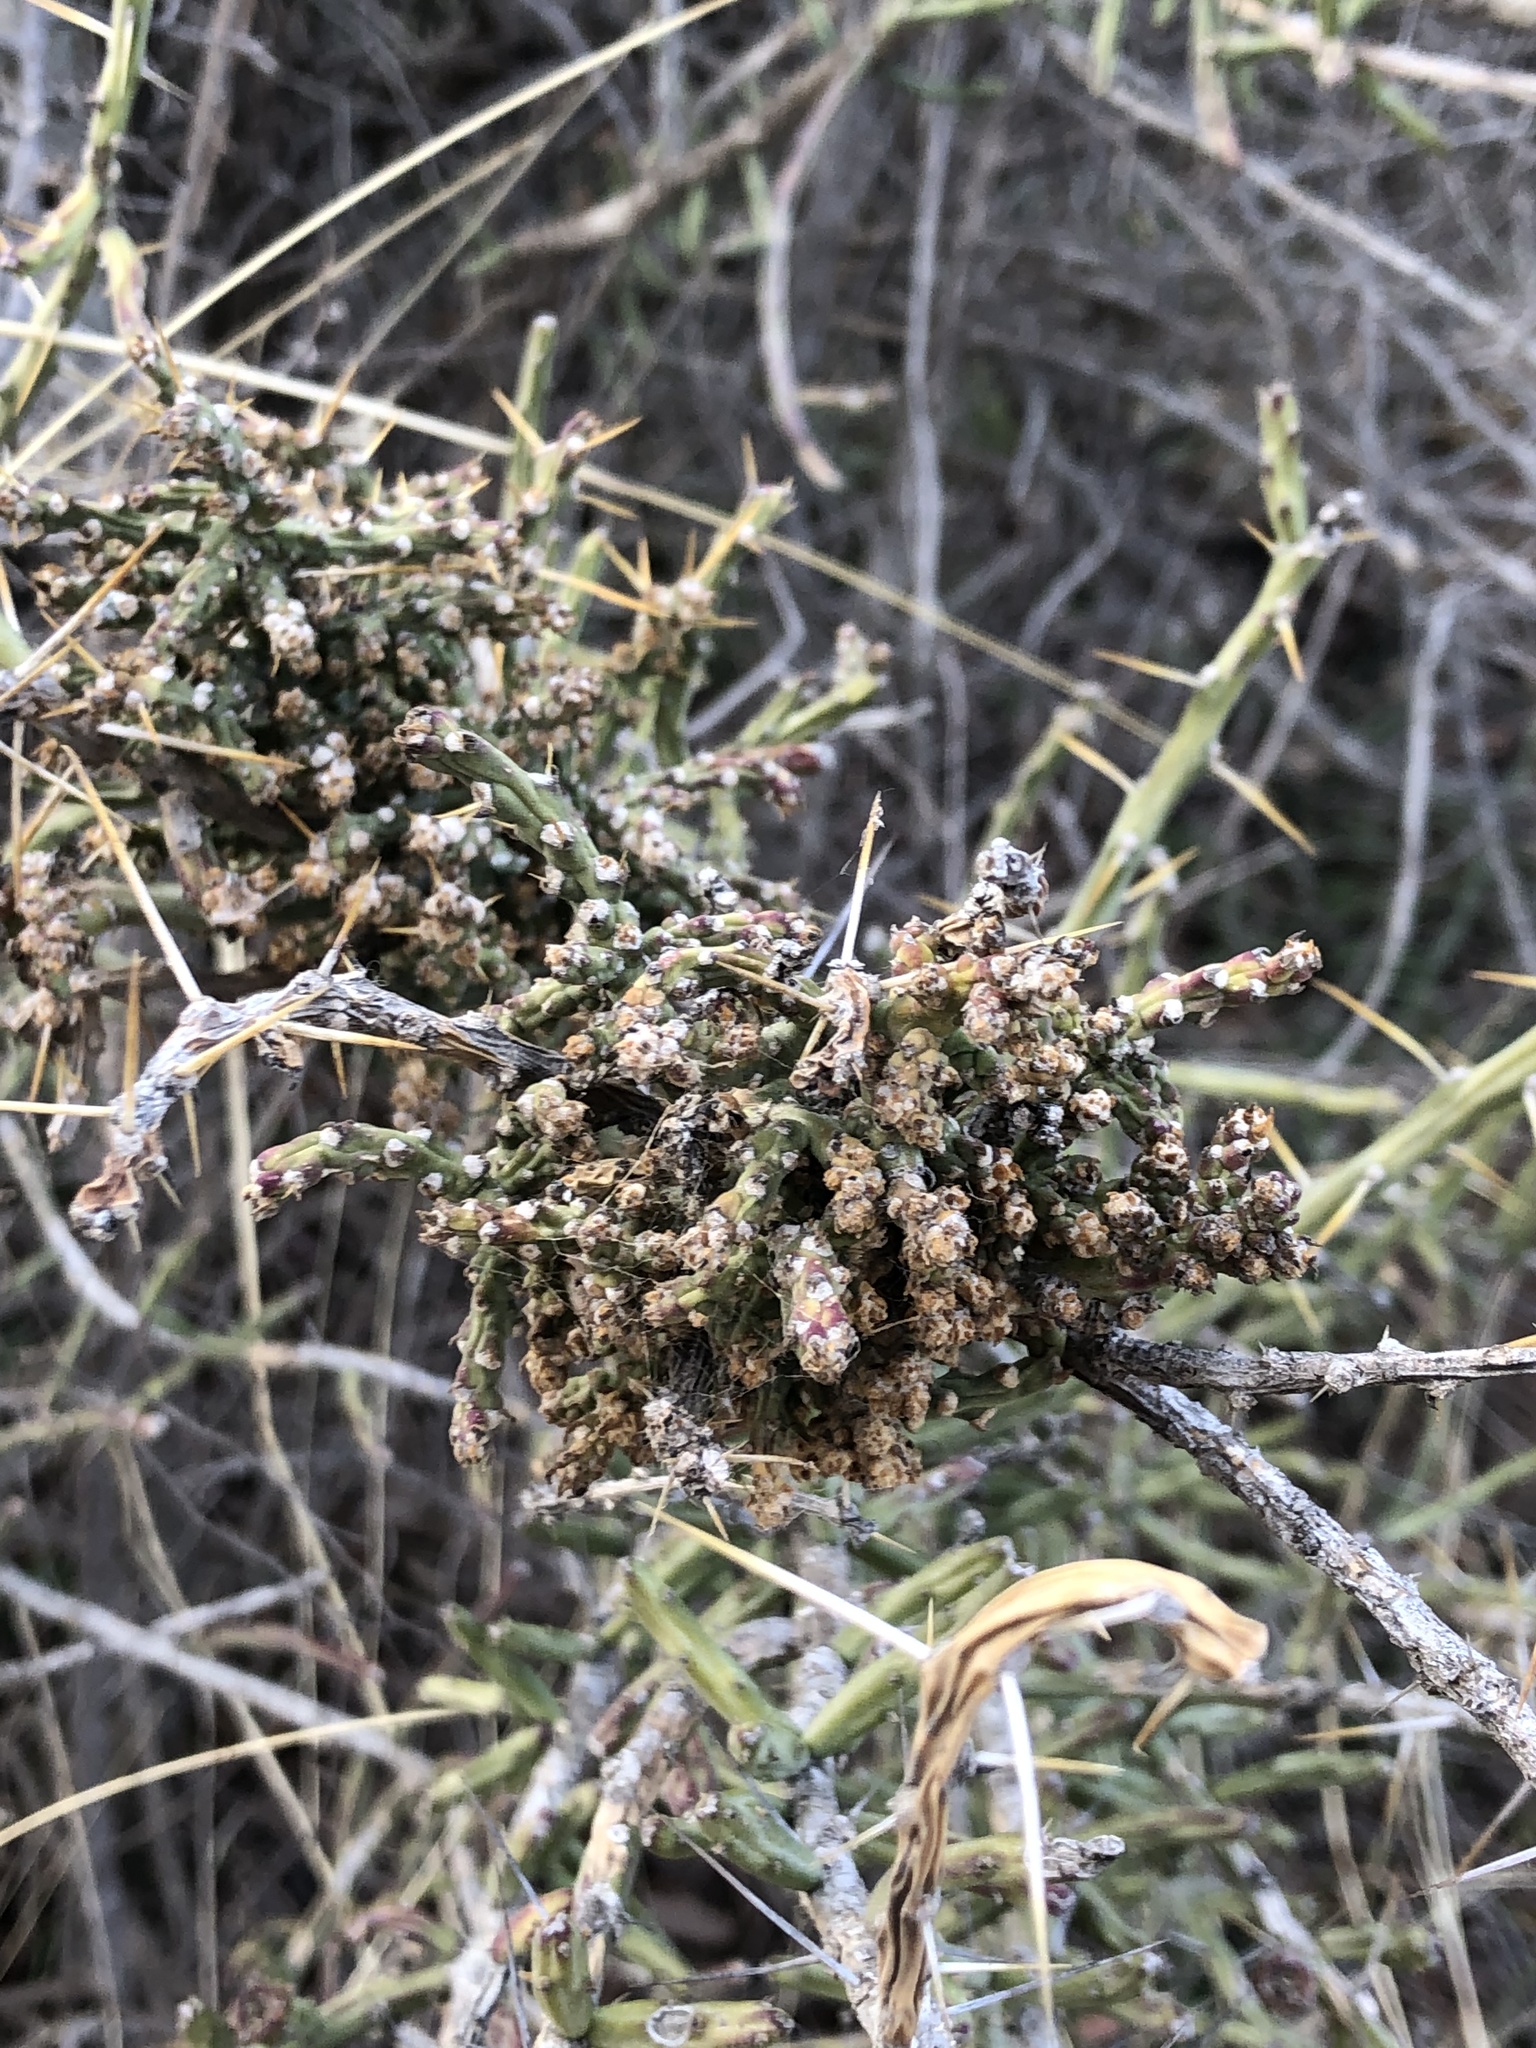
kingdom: Plantae
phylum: Tracheophyta
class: Magnoliopsida
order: Caryophyllales
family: Cactaceae
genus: Cylindropuntia
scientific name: Cylindropuntia leptocaulis
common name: Christmas cactus
